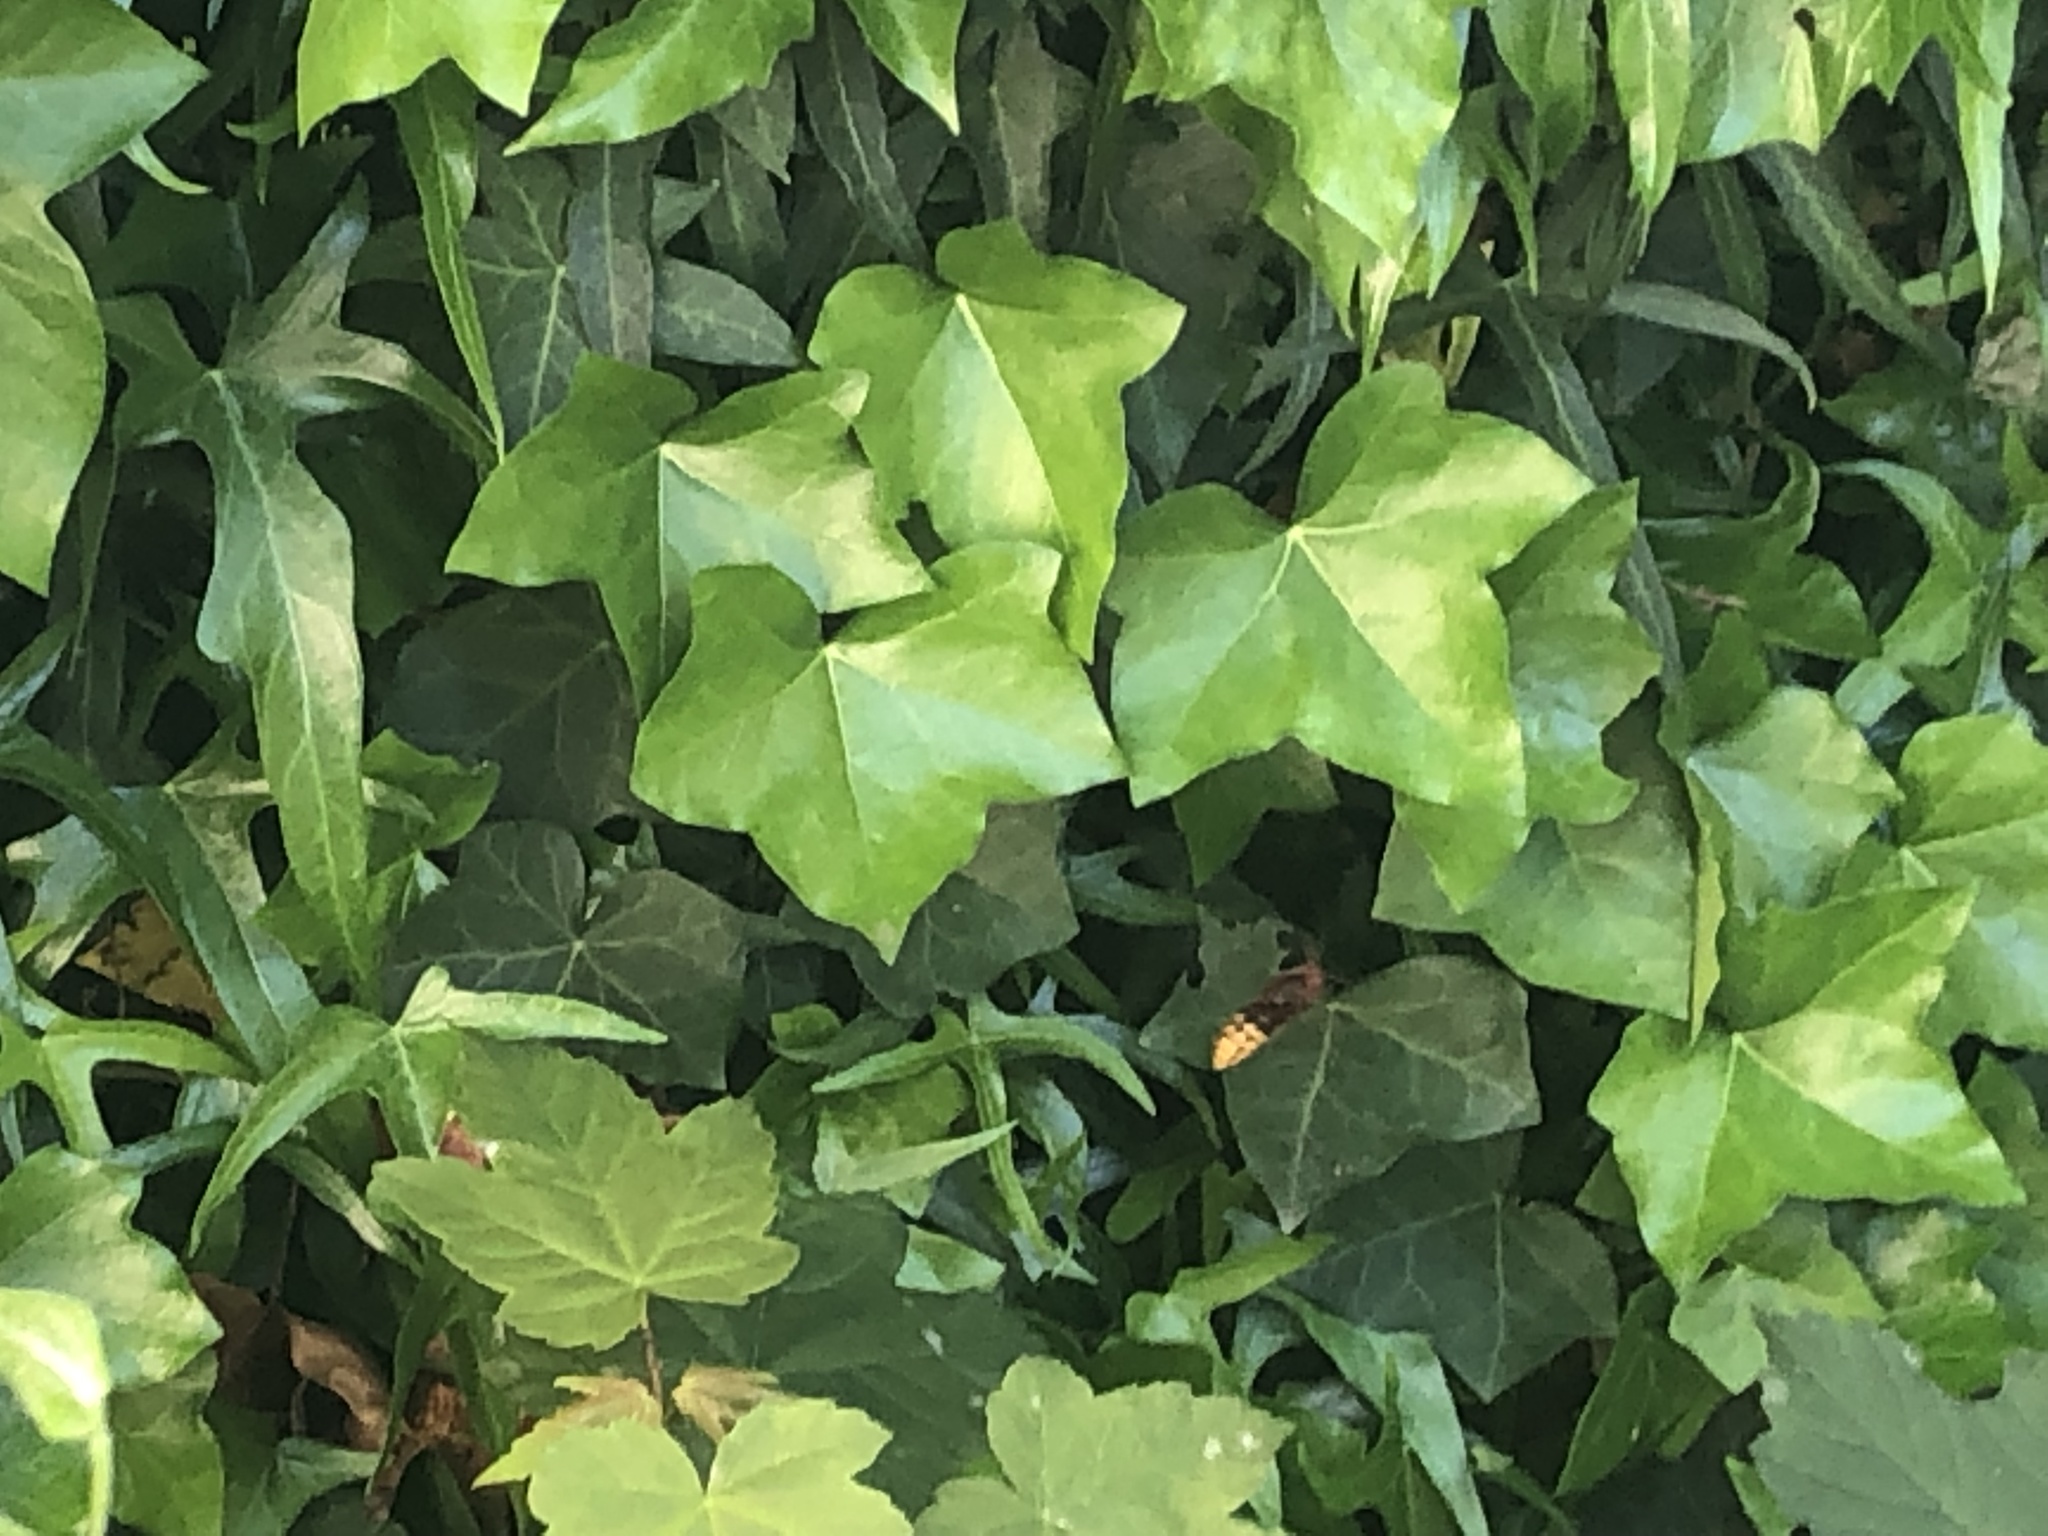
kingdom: Animalia
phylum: Arthropoda
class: Insecta
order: Hymenoptera
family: Vespidae
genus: Vespa
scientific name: Vespa crabro
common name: Hornet
